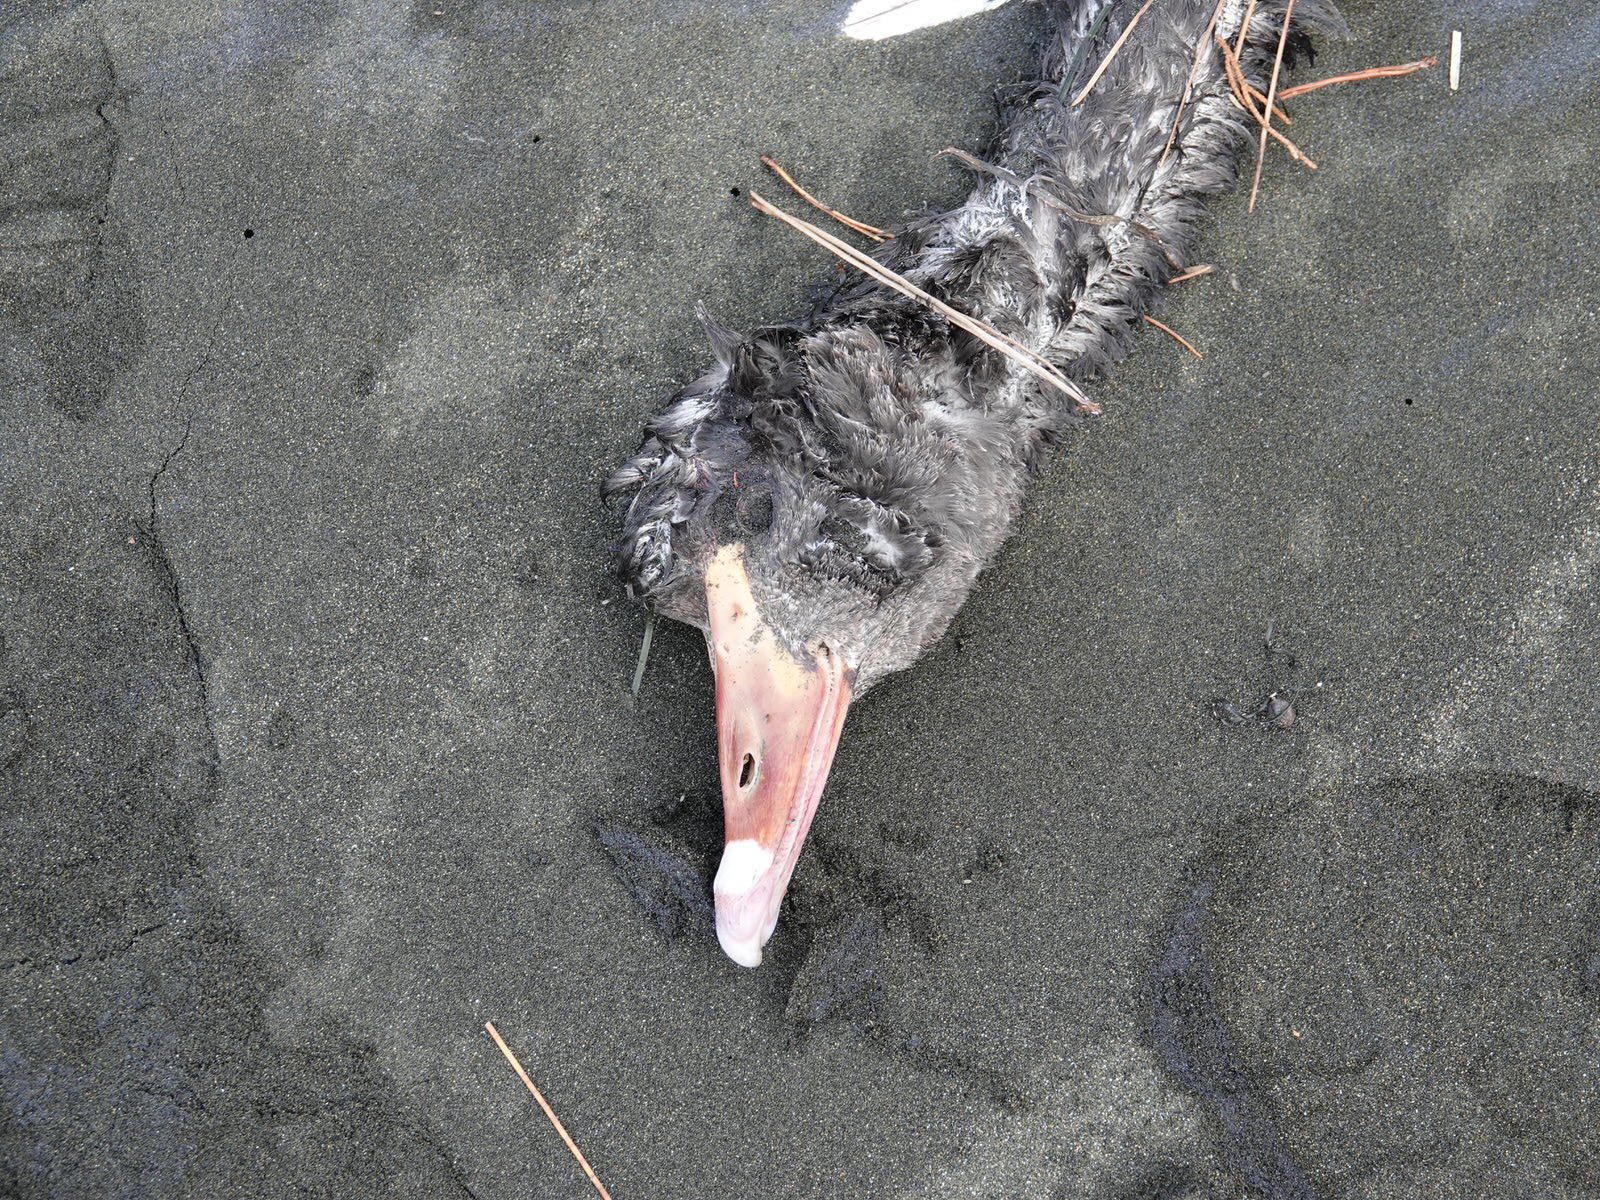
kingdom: Animalia
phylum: Chordata
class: Aves
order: Anseriformes
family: Anatidae
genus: Cygnus
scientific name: Cygnus atratus
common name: Black swan
